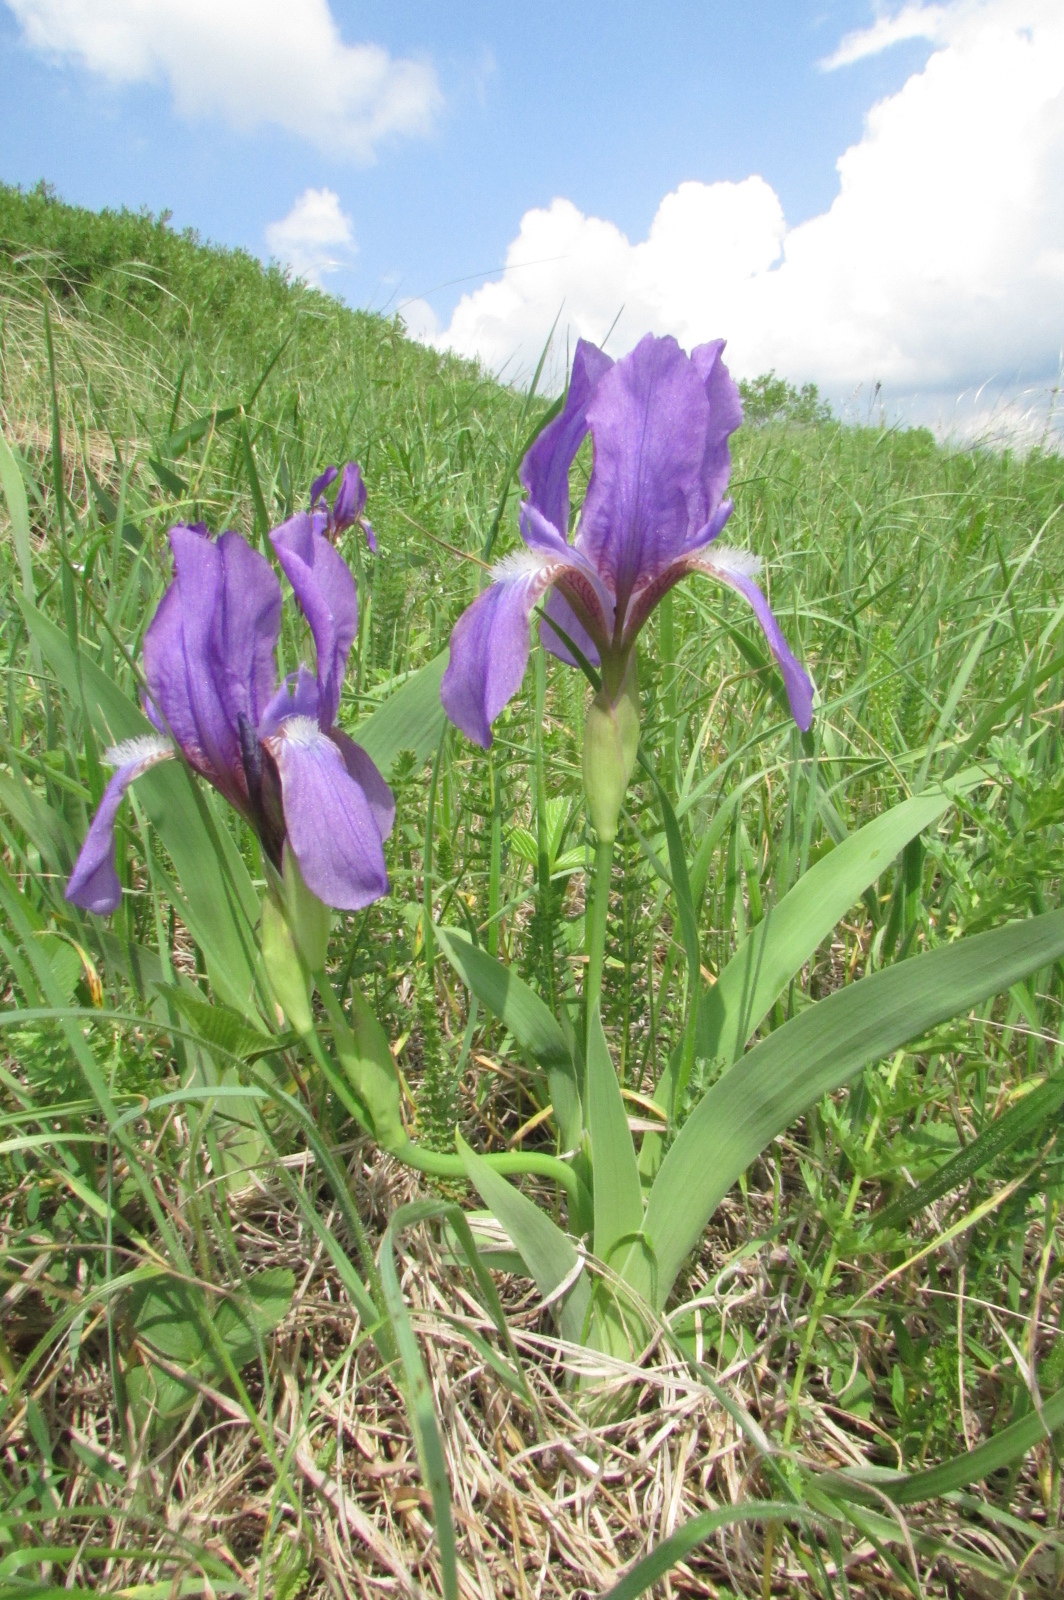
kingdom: Plantae
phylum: Tracheophyta
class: Liliopsida
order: Asparagales
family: Iridaceae
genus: Iris
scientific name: Iris aphylla
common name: Stool iris
